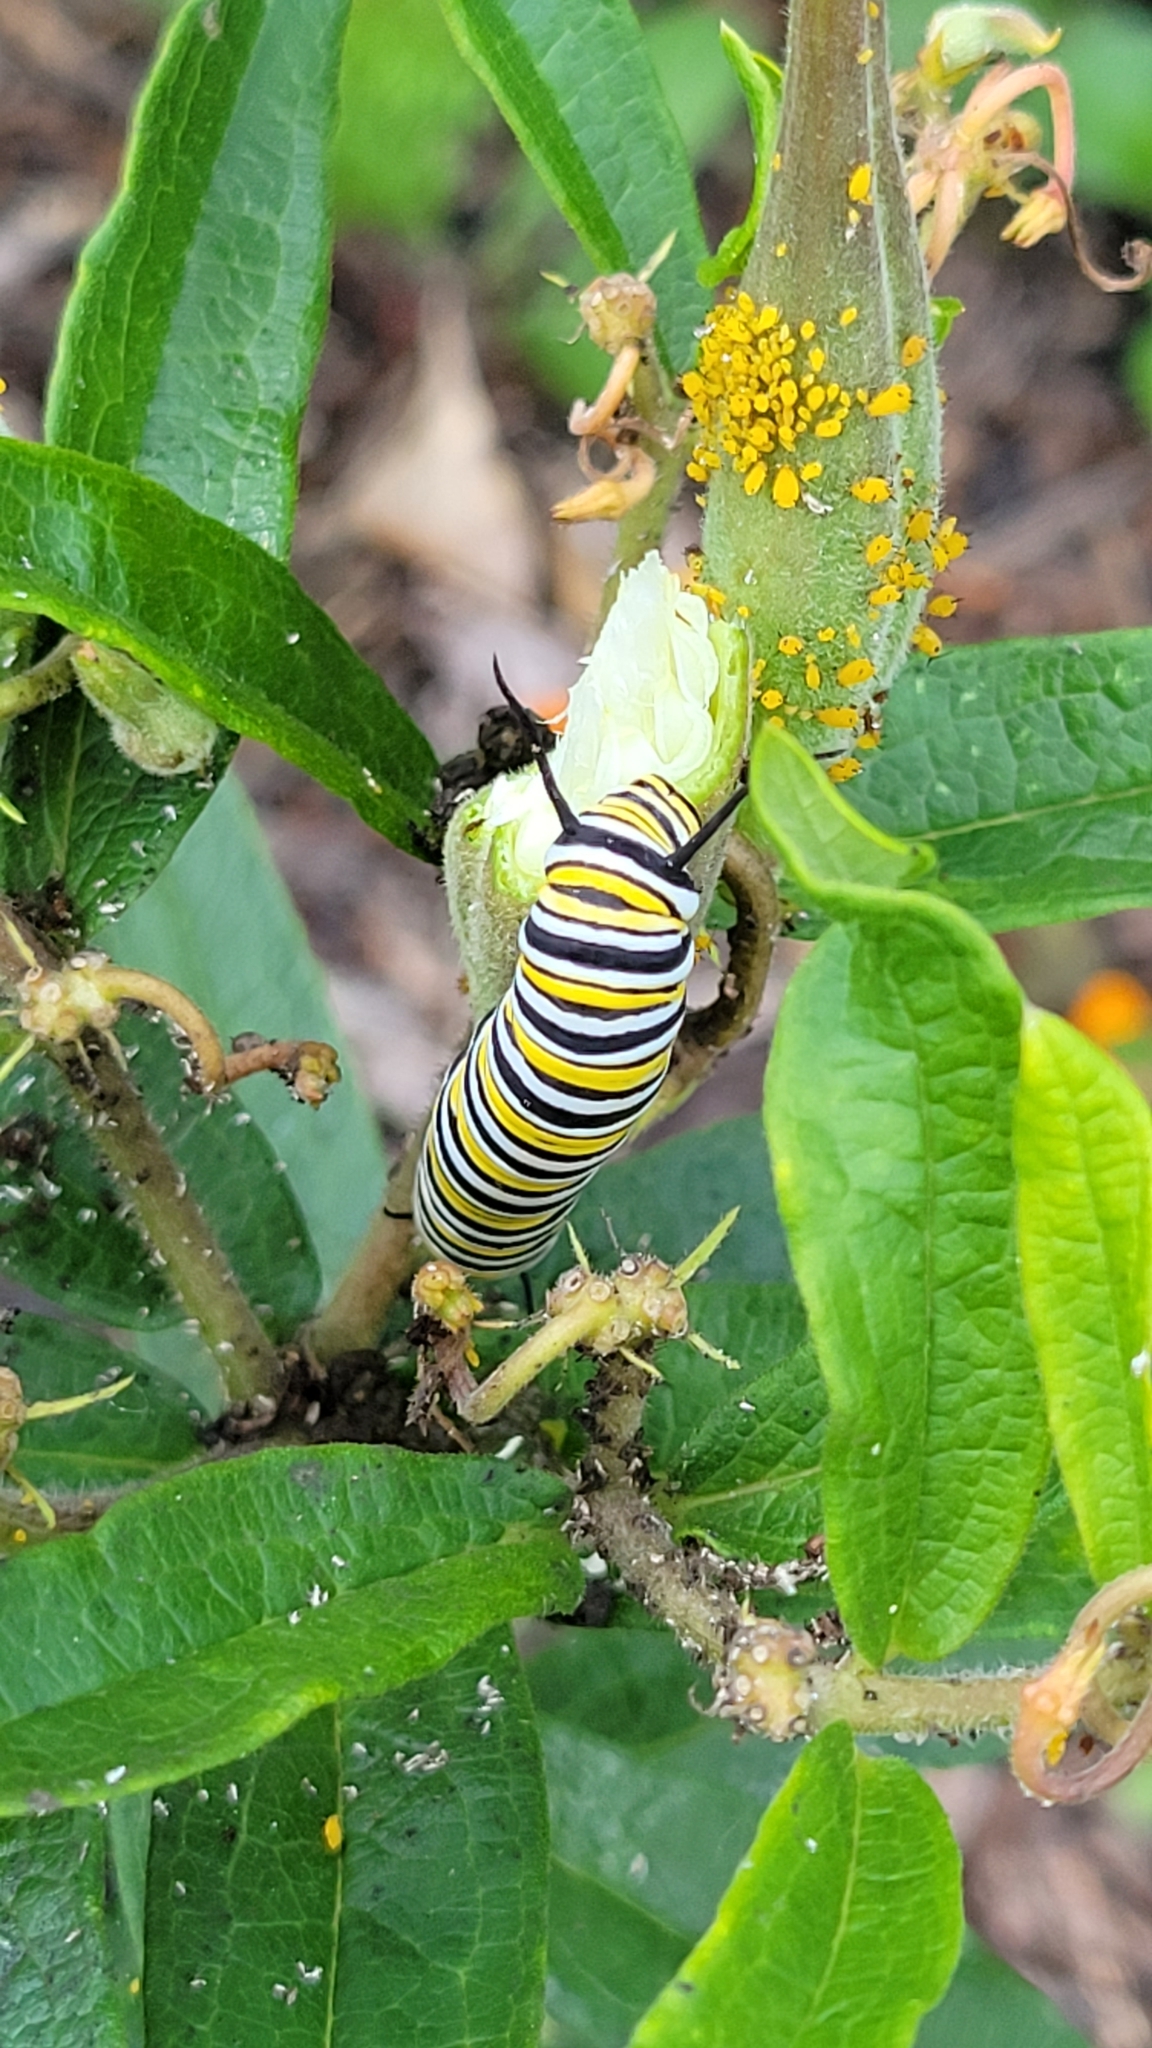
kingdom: Animalia
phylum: Arthropoda
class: Insecta
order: Lepidoptera
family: Nymphalidae
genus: Danaus
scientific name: Danaus plexippus
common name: Monarch
